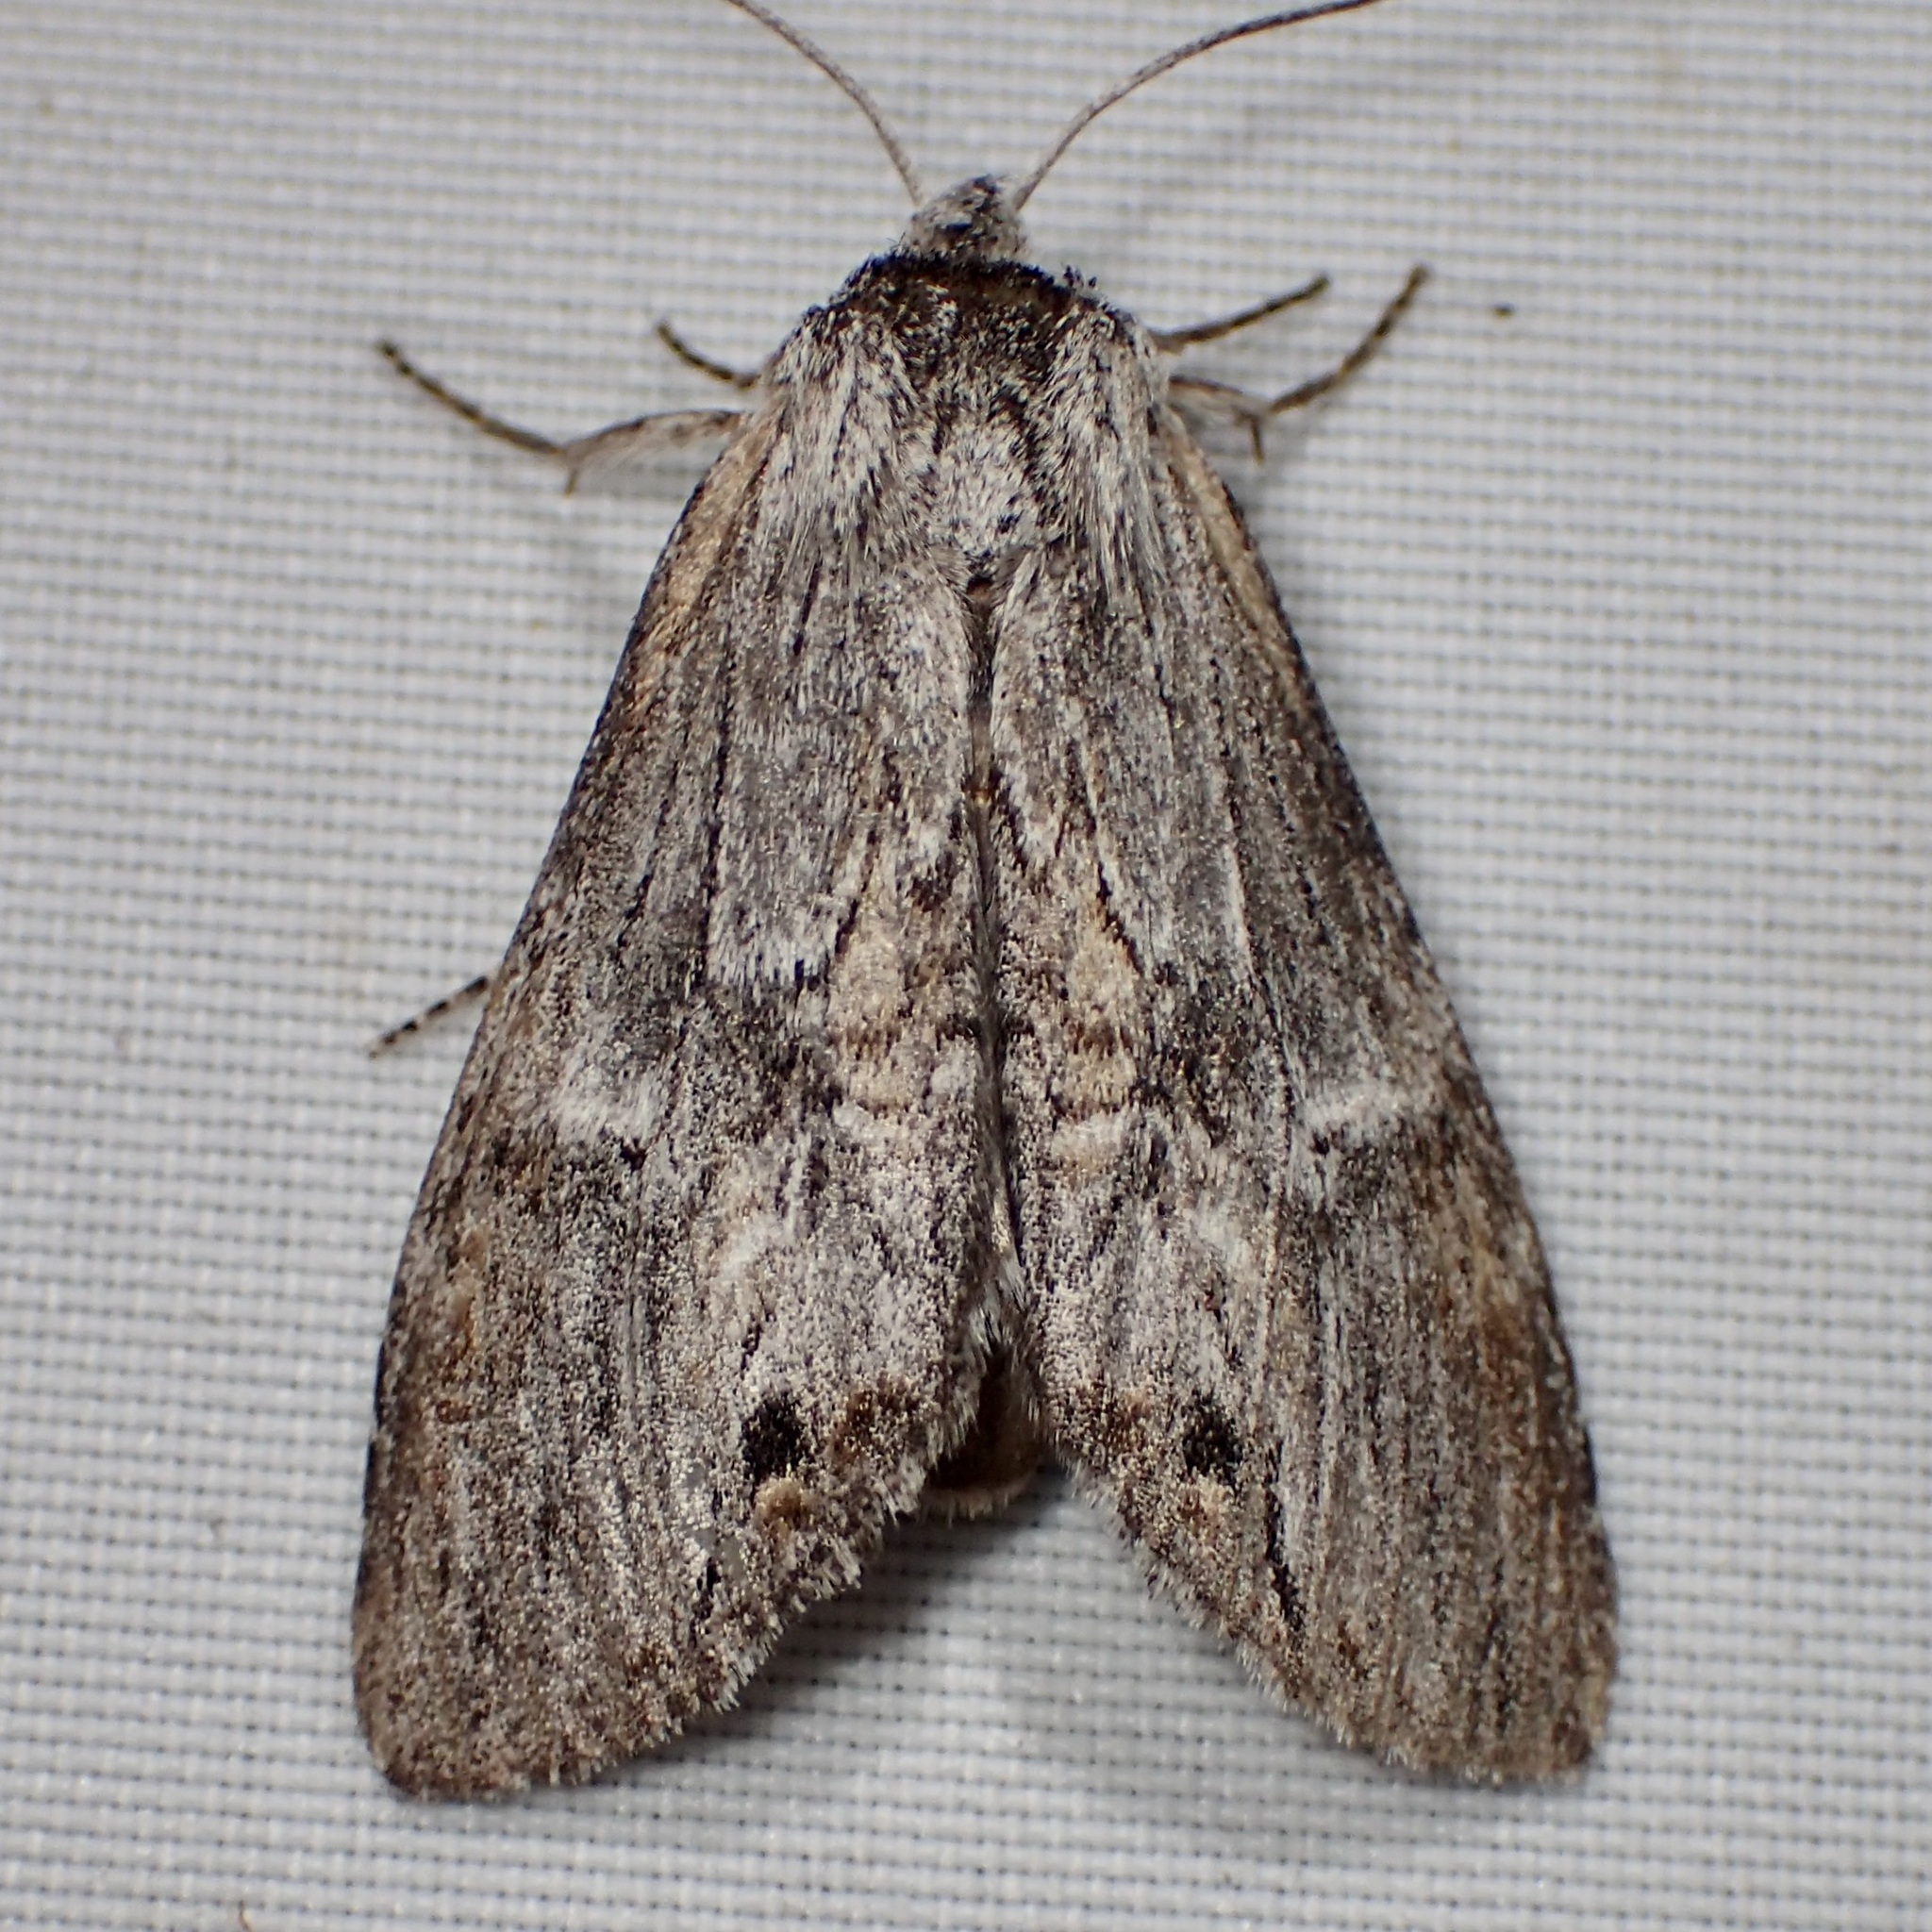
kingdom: Animalia
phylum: Arthropoda
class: Insecta
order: Lepidoptera
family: Notodontidae
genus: Notela
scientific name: Notela jaliscana
